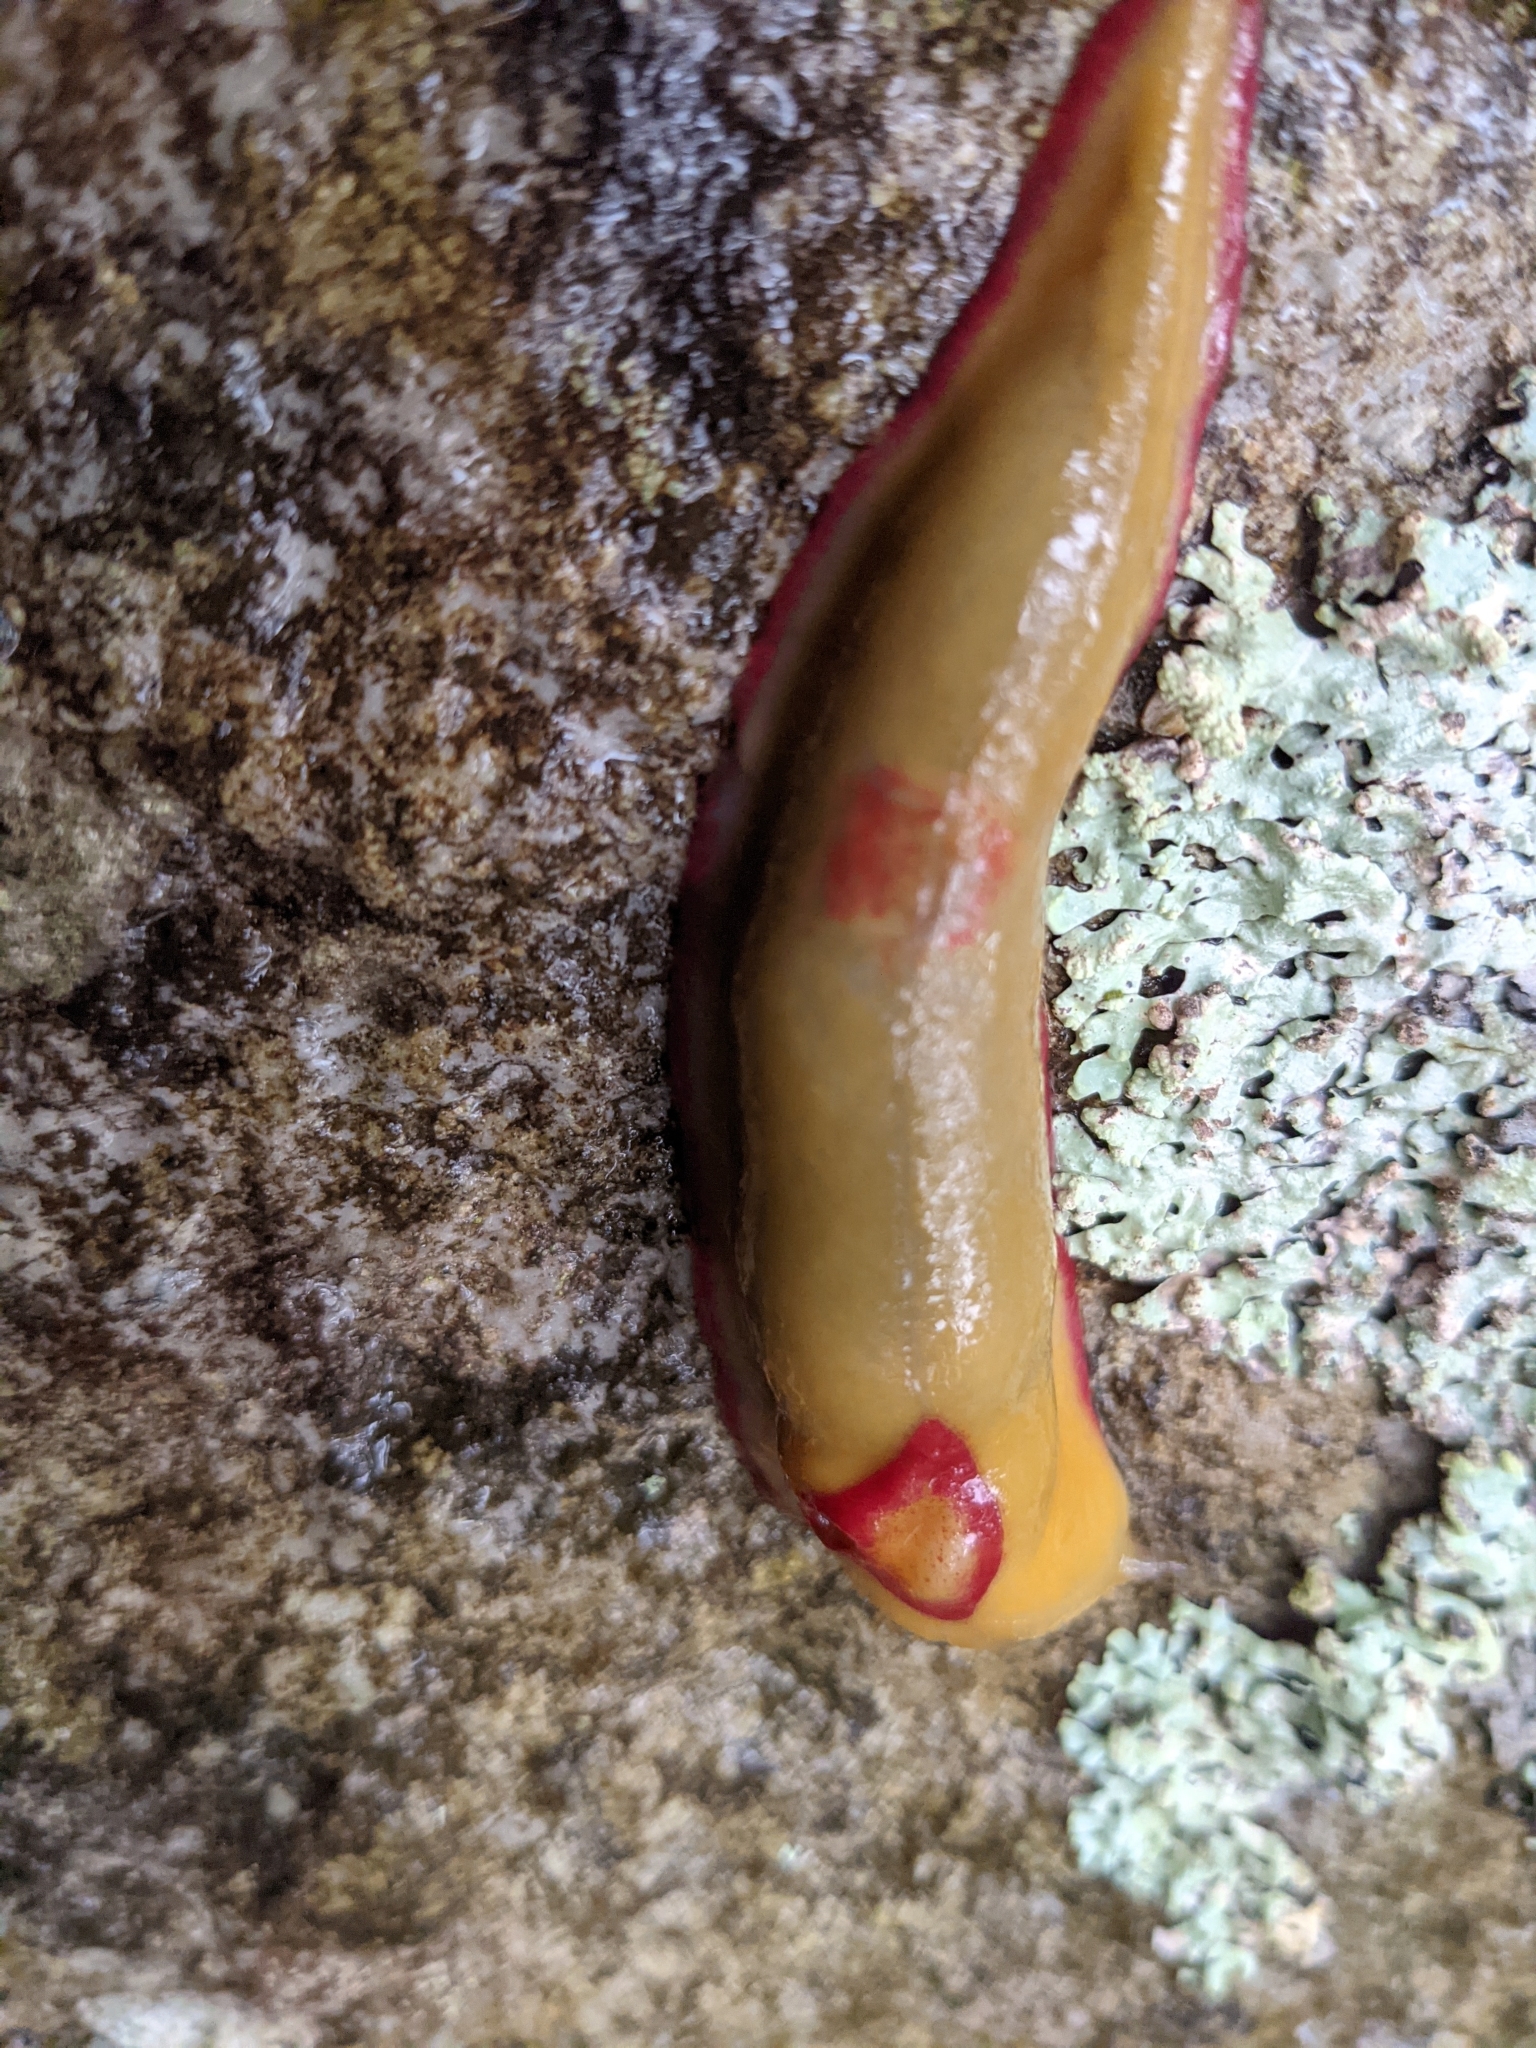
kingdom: Animalia
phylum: Mollusca
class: Gastropoda
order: Stylommatophora
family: Athoracophoridae
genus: Triboniophorus
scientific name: Triboniophorus graeffei
